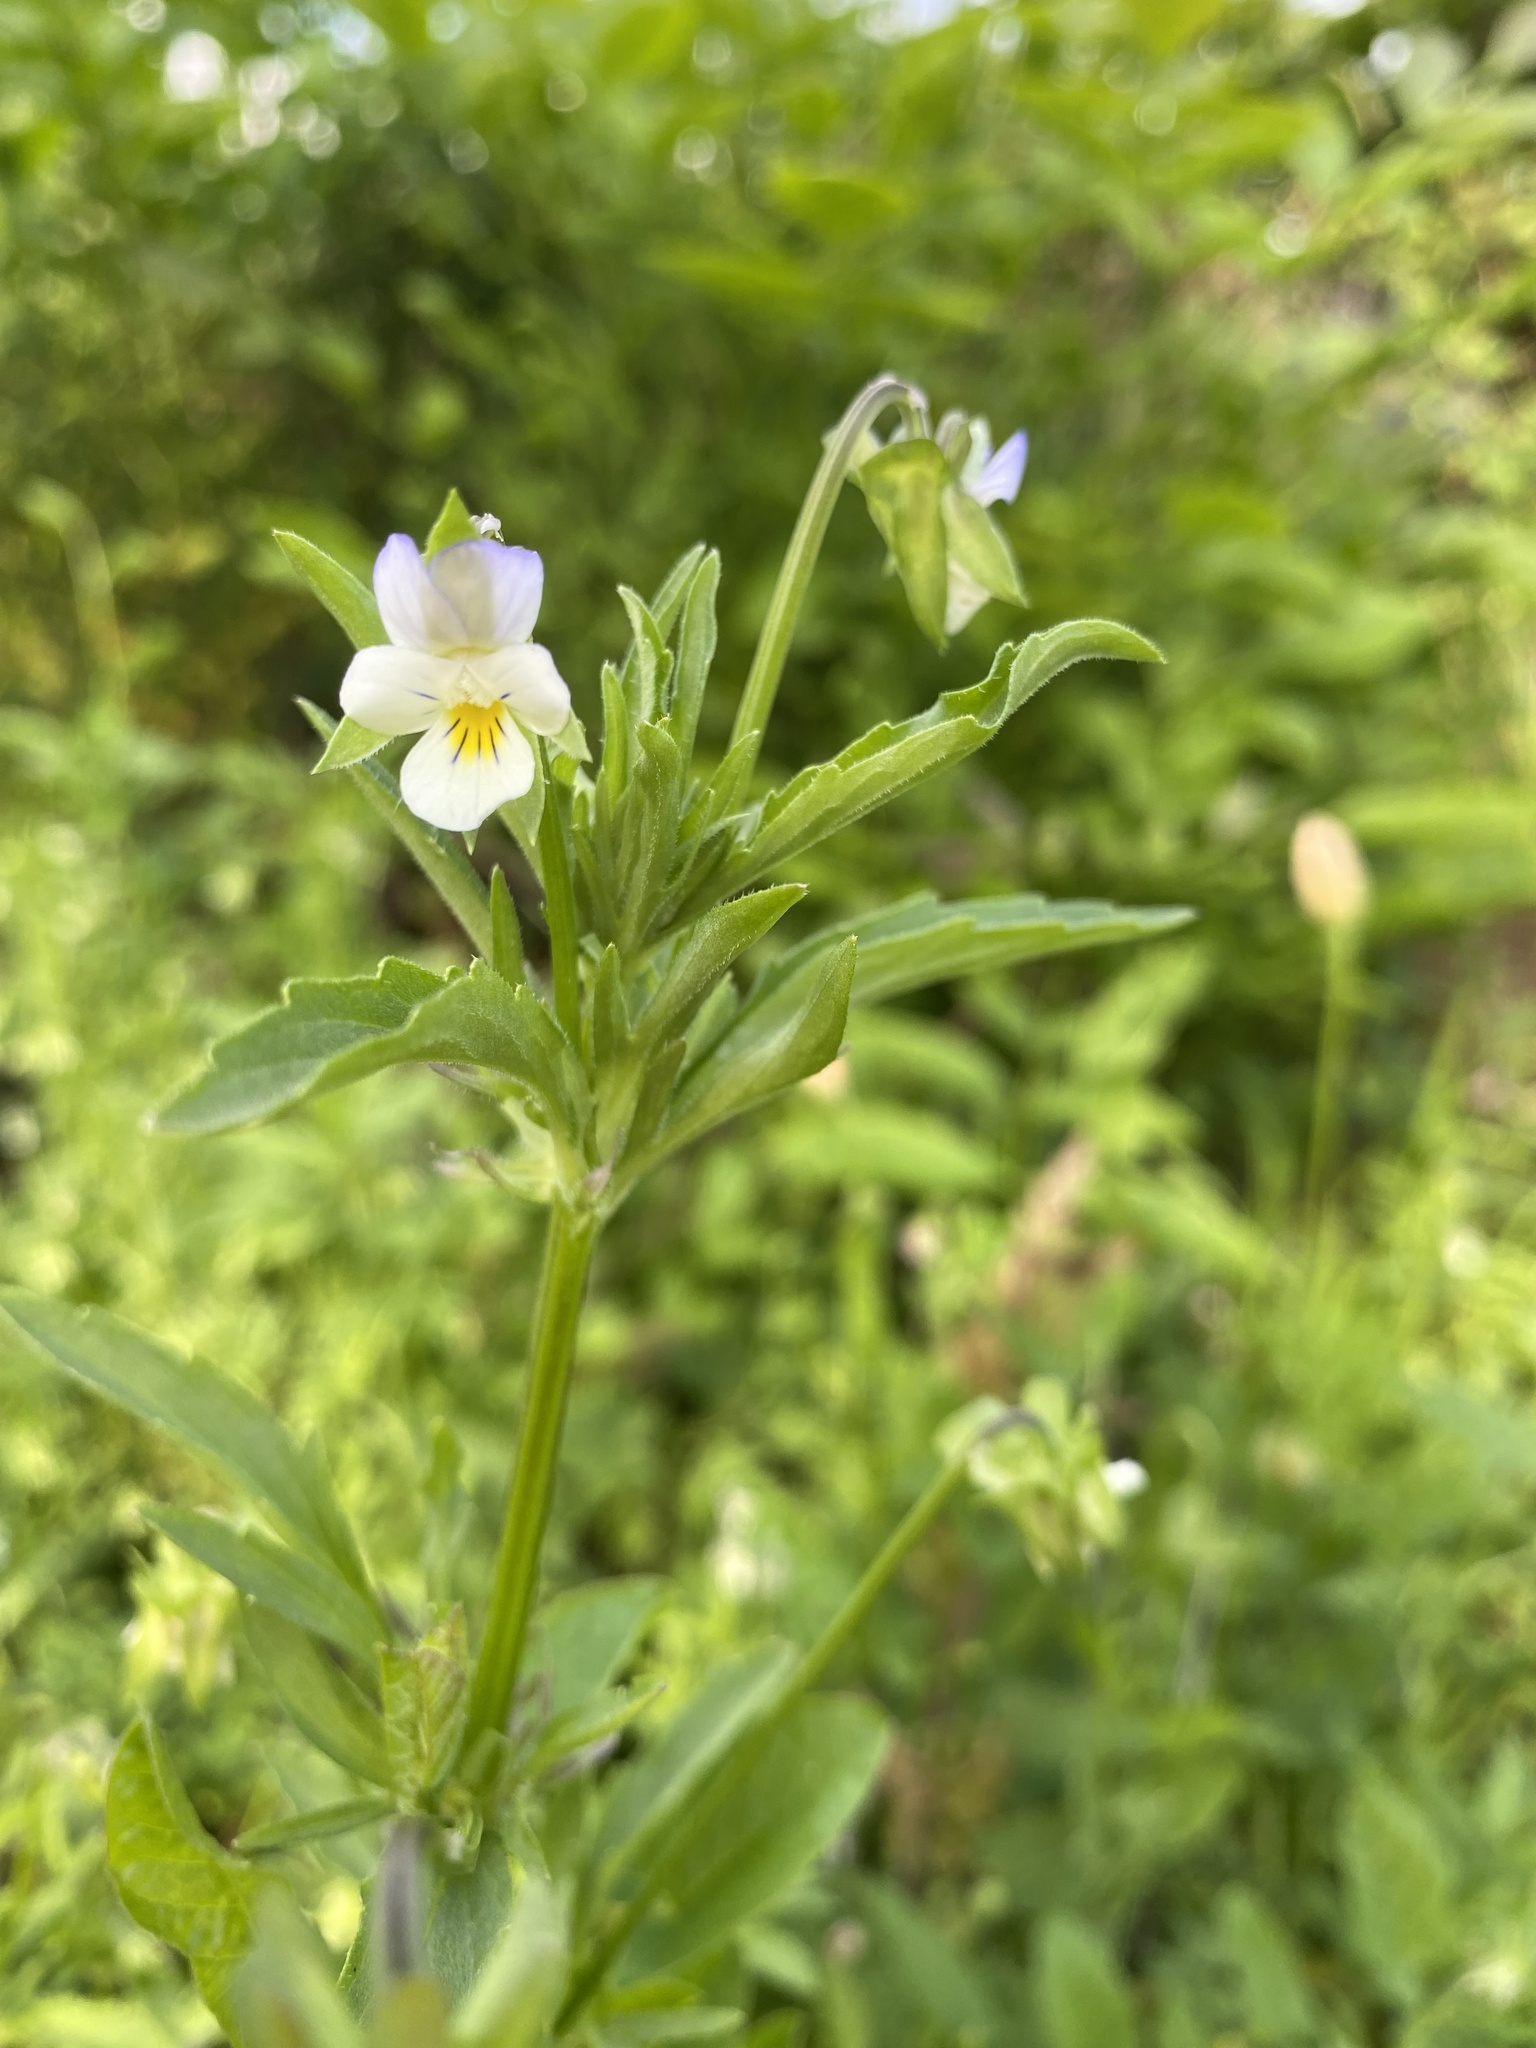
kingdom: Plantae
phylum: Tracheophyta
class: Magnoliopsida
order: Malpighiales
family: Violaceae
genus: Viola
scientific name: Viola arvensis
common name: Field pansy
